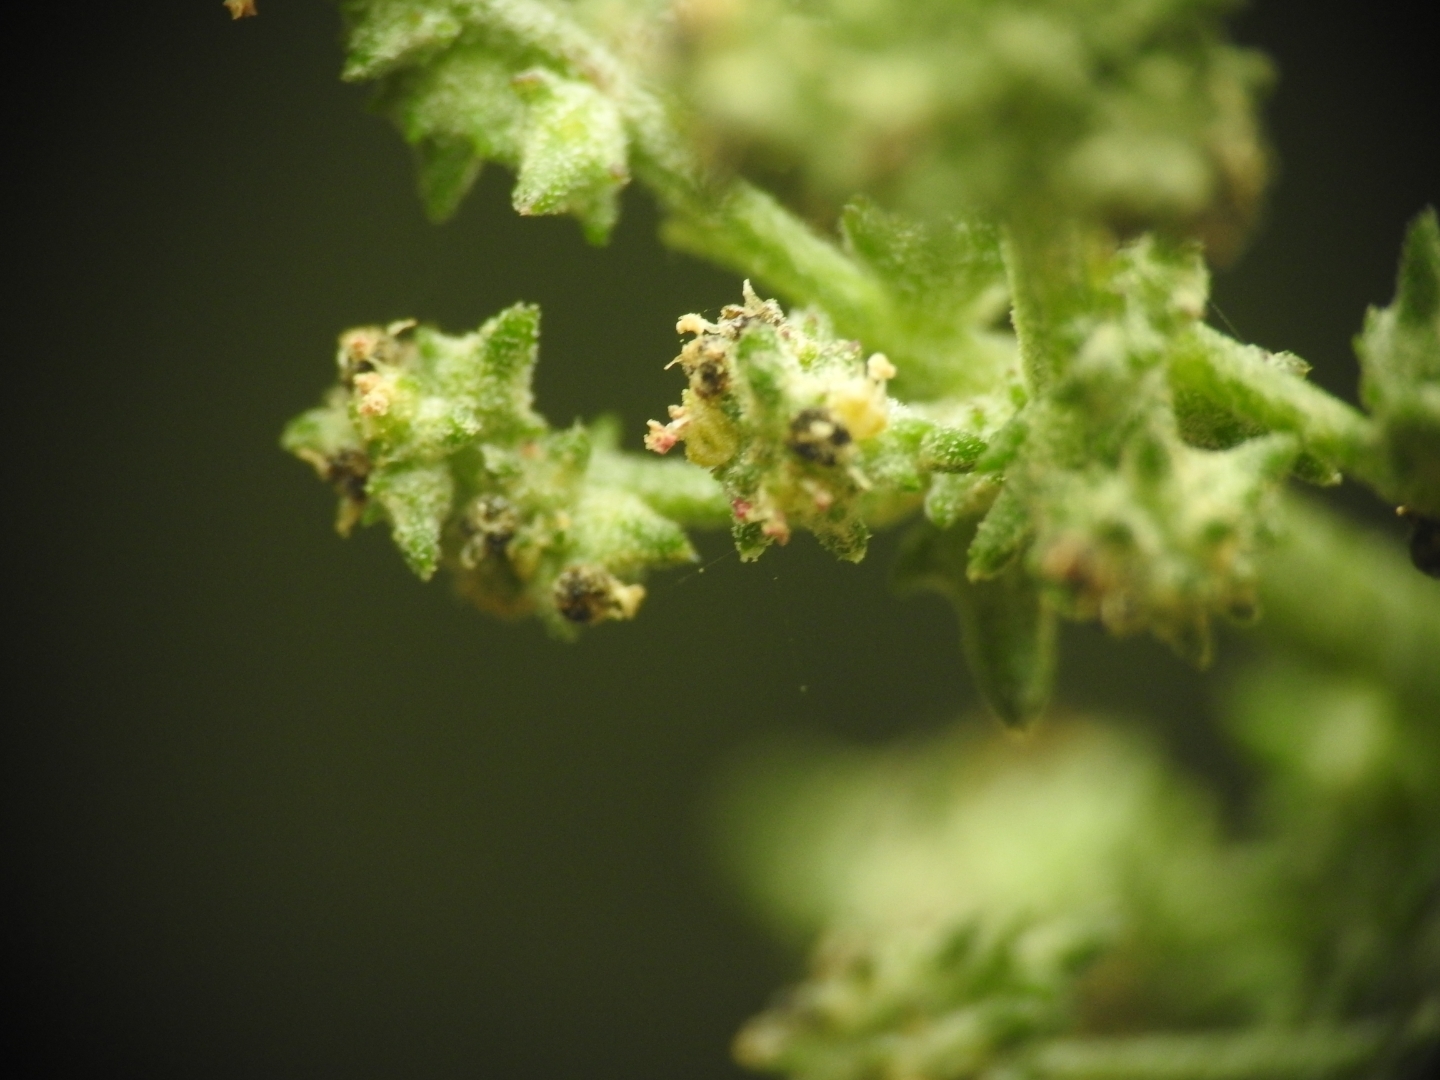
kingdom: Plantae
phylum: Tracheophyta
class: Magnoliopsida
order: Caryophyllales
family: Amaranthaceae
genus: Atriplex
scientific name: Atriplex patula
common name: Common orache
